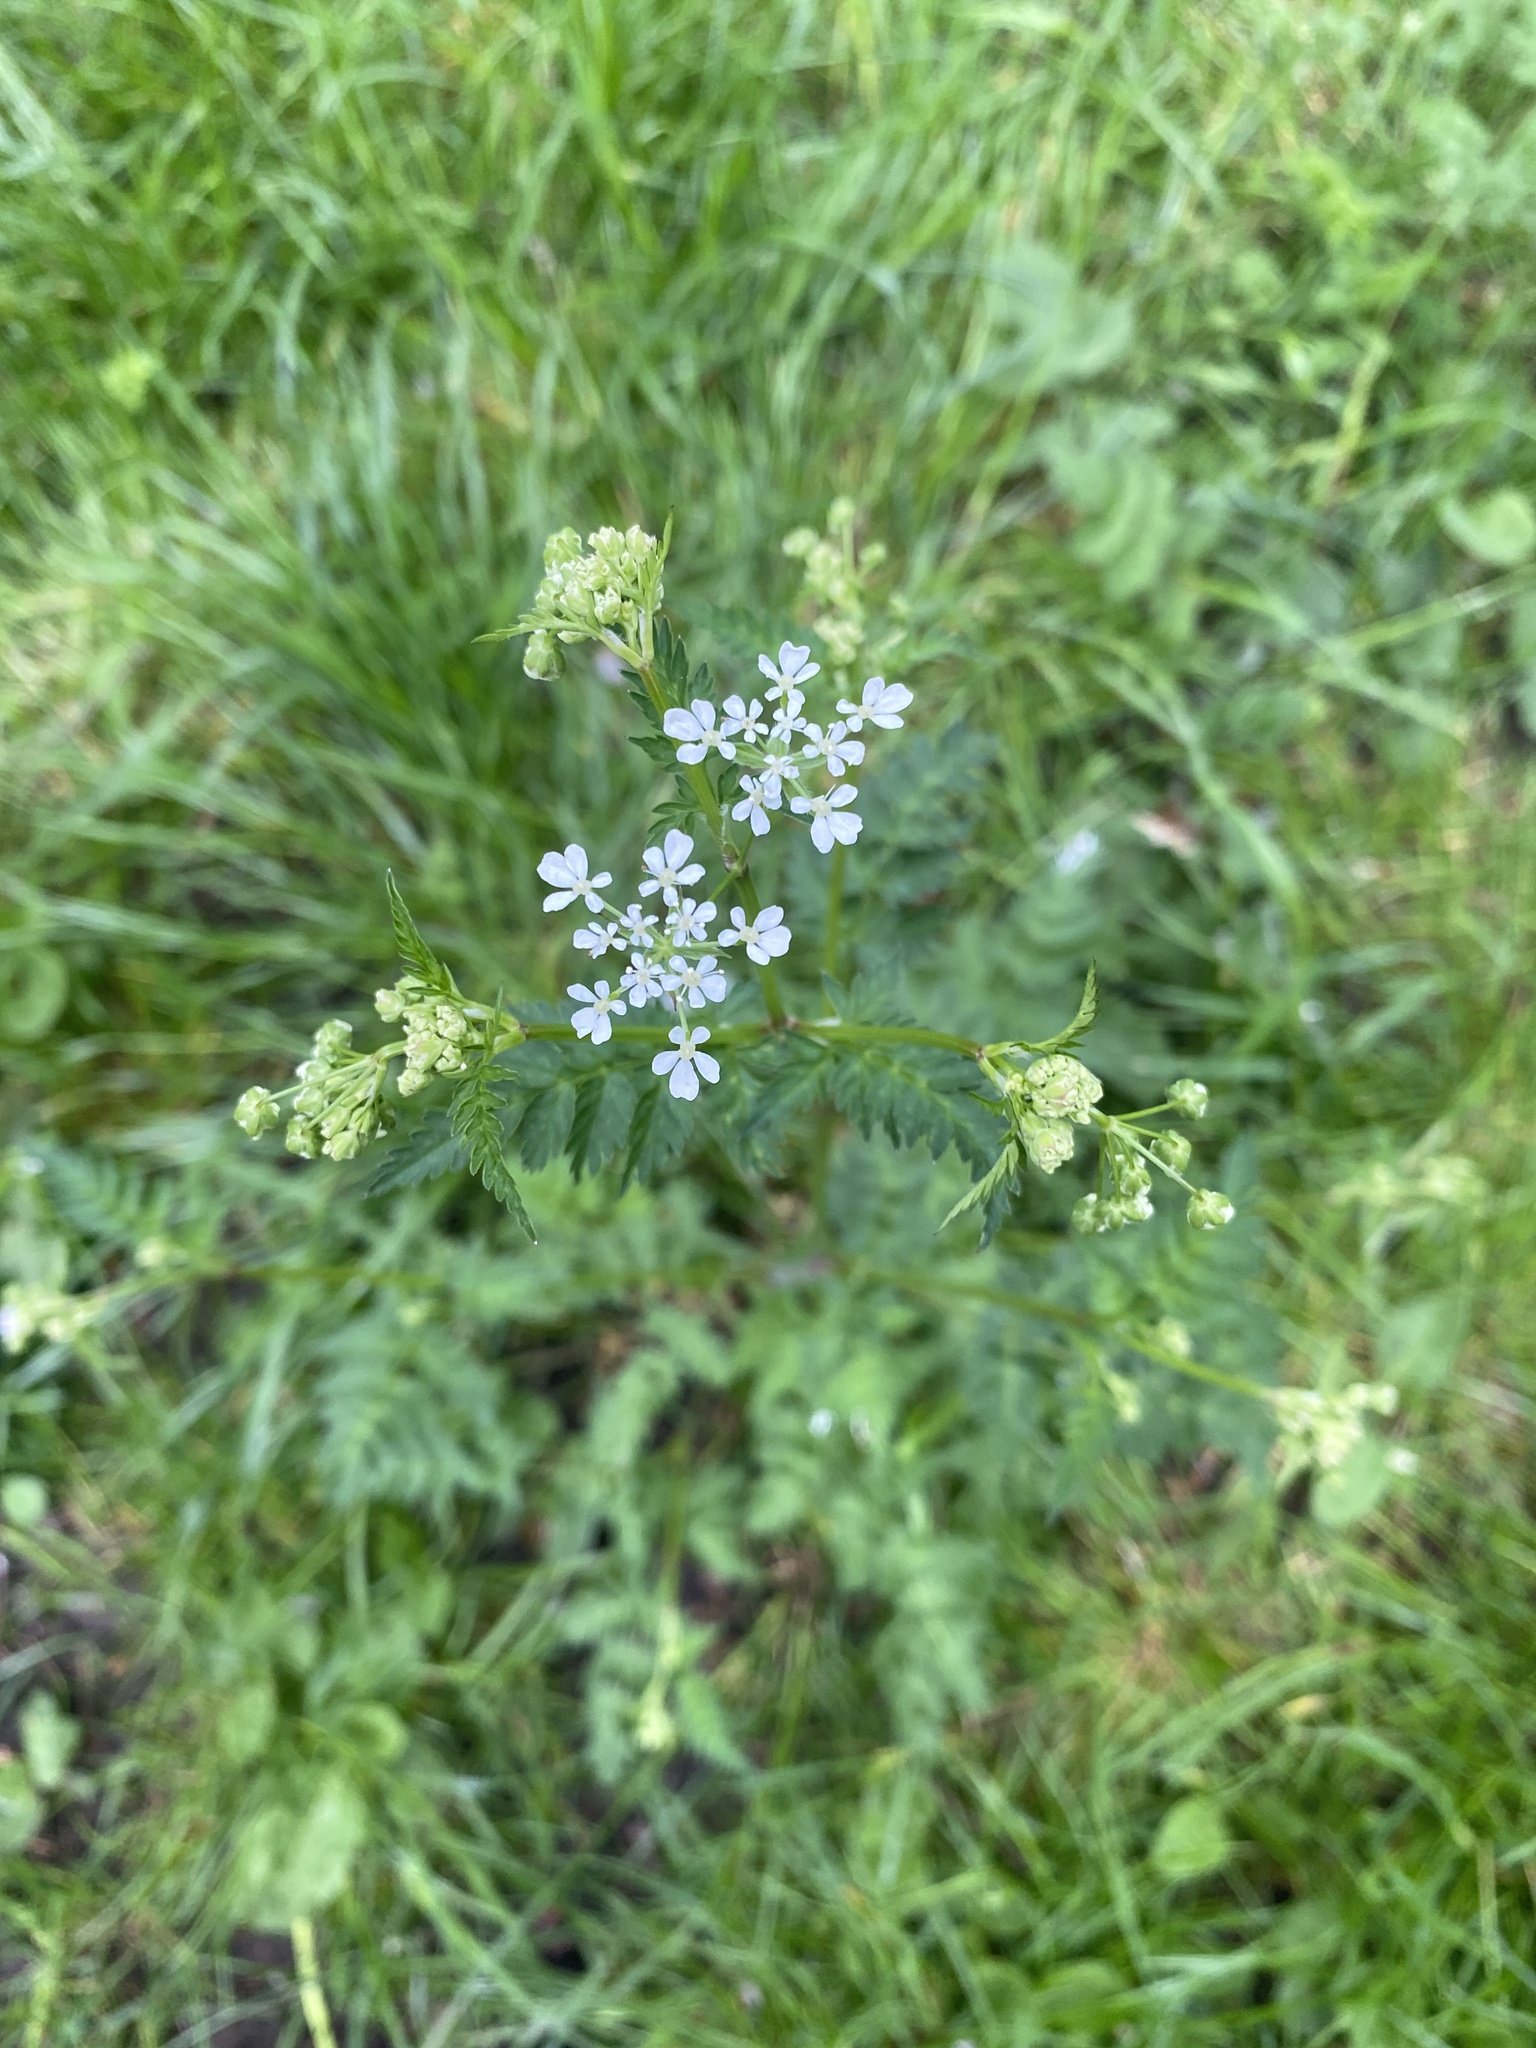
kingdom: Plantae
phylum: Tracheophyta
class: Magnoliopsida
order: Apiales
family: Apiaceae
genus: Anthriscus
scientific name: Anthriscus sylvestris
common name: Cow parsley
